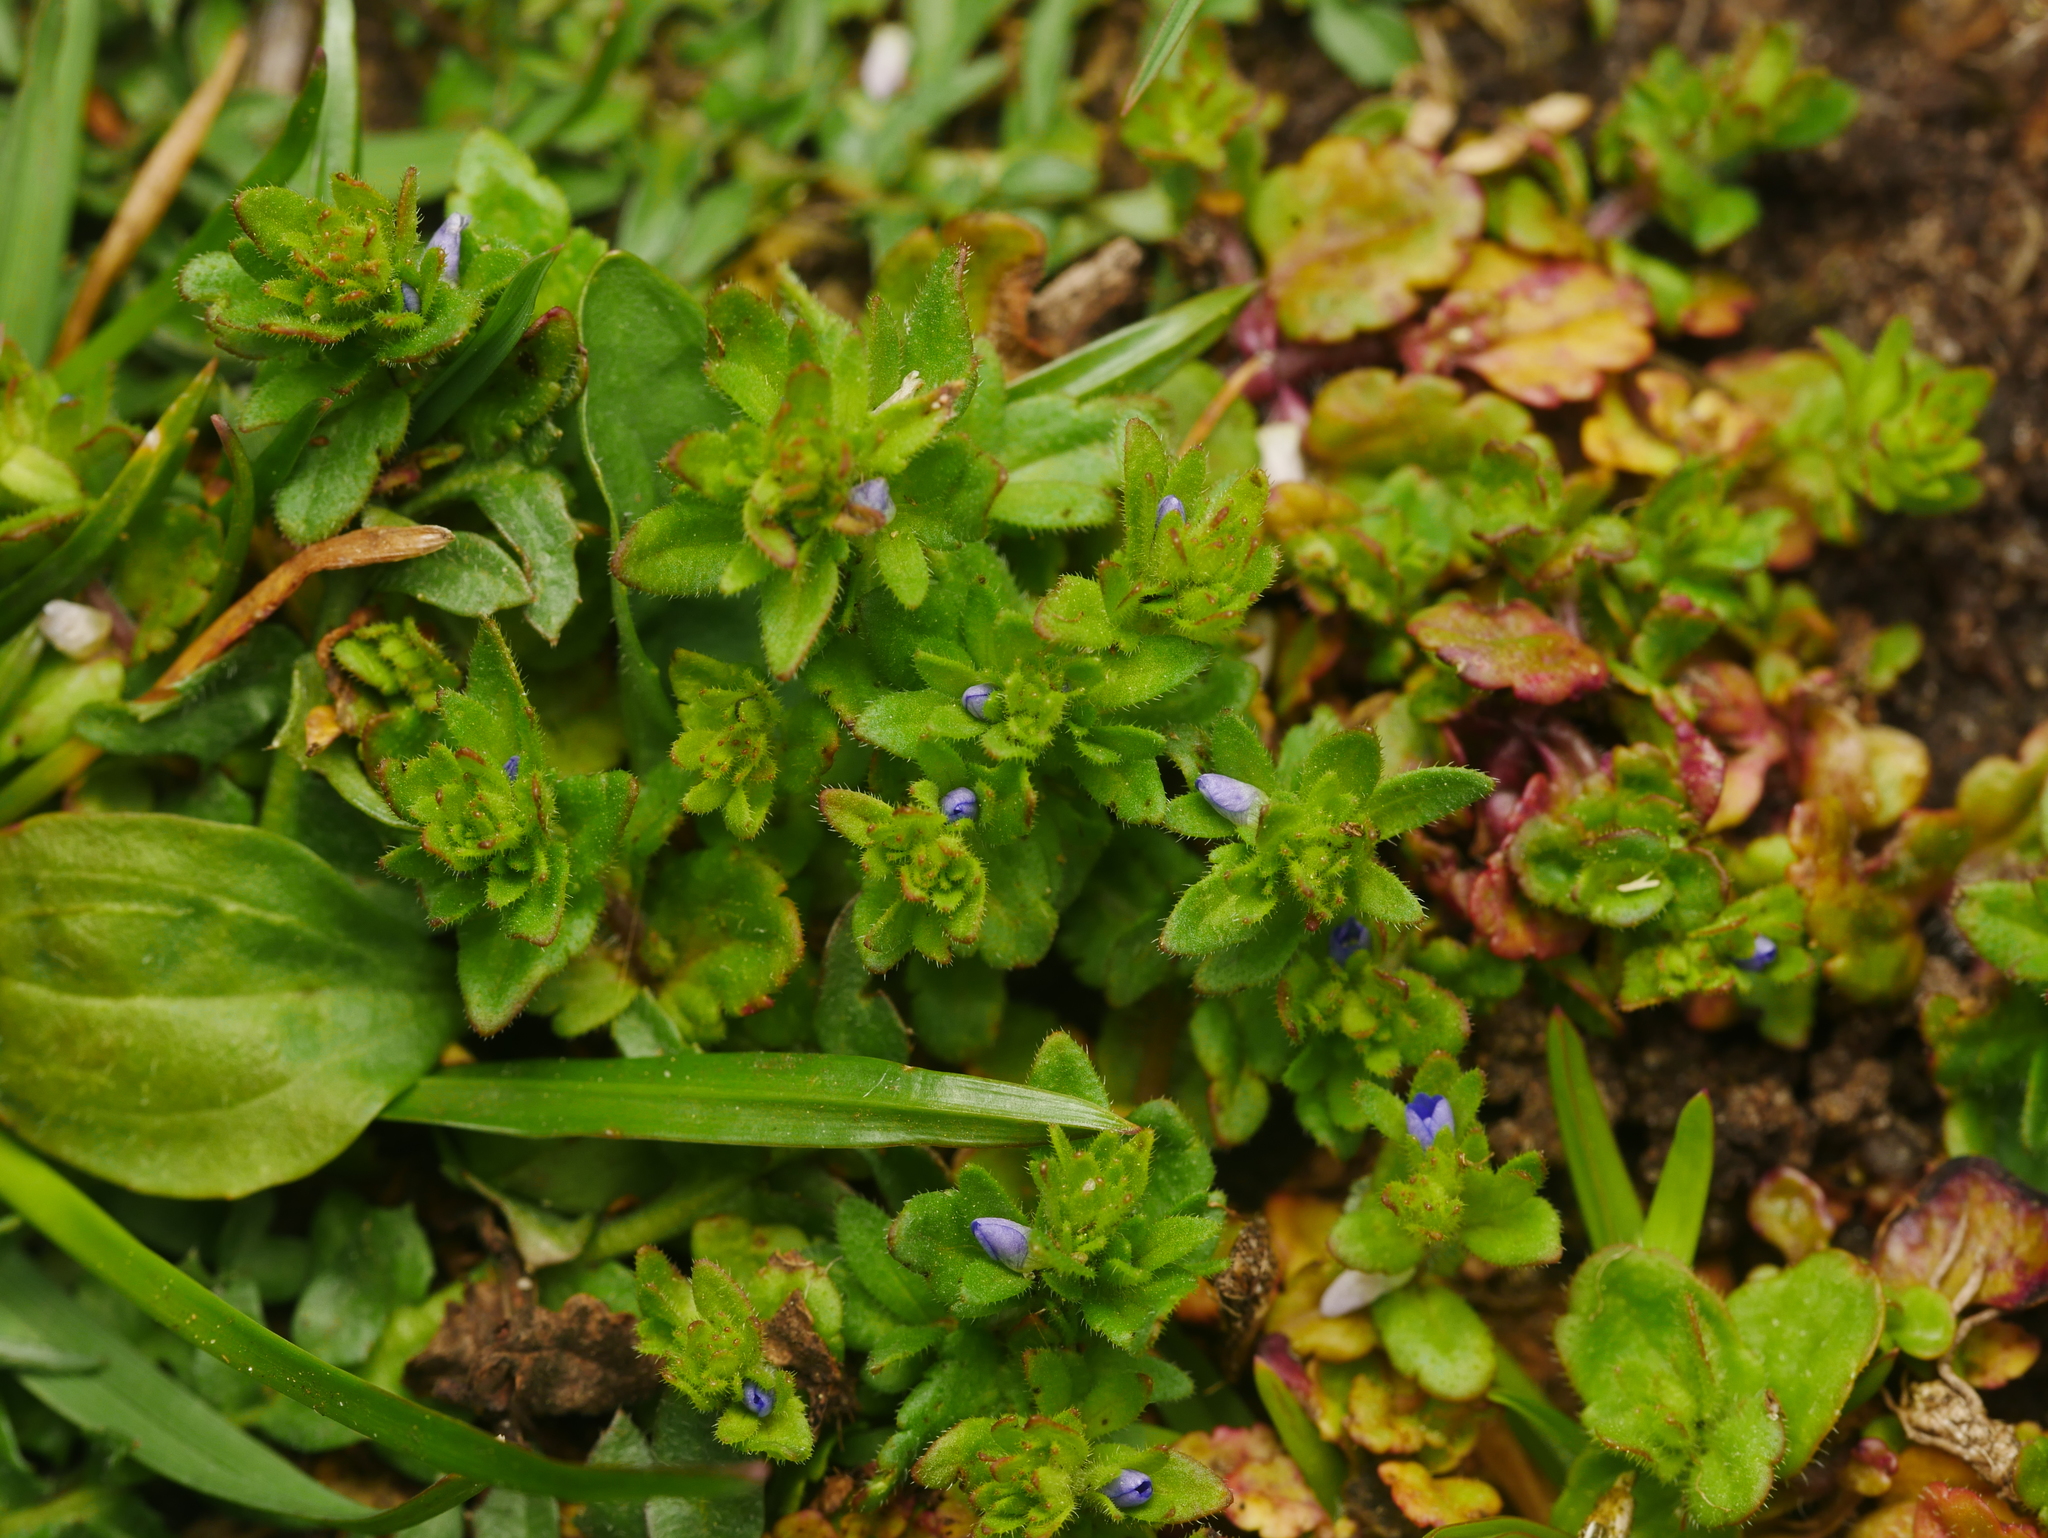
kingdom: Plantae
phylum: Tracheophyta
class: Magnoliopsida
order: Lamiales
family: Plantaginaceae
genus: Veronica
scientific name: Veronica arvensis
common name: Corn speedwell
